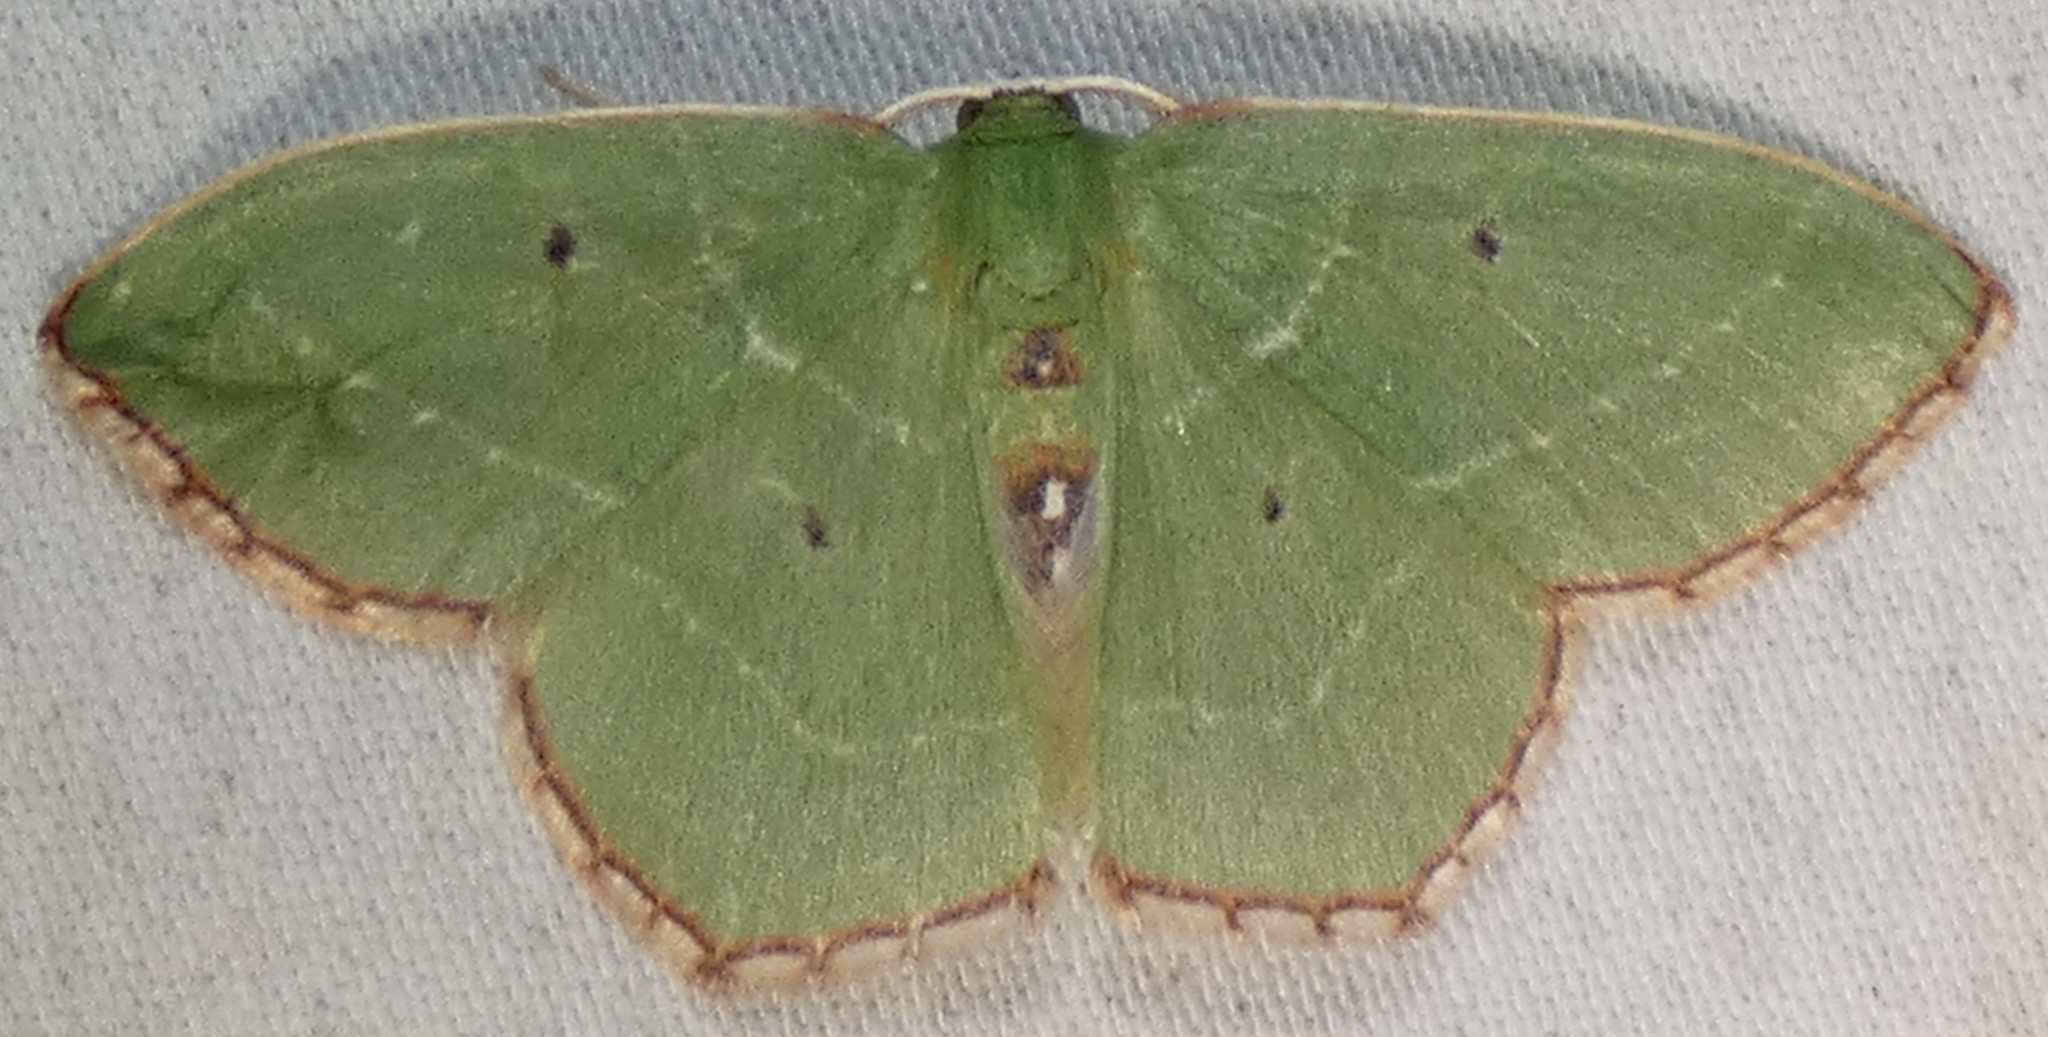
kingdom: Animalia
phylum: Arthropoda
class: Insecta
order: Lepidoptera
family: Geometridae
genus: Nemoria
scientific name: Nemoria saturiba
